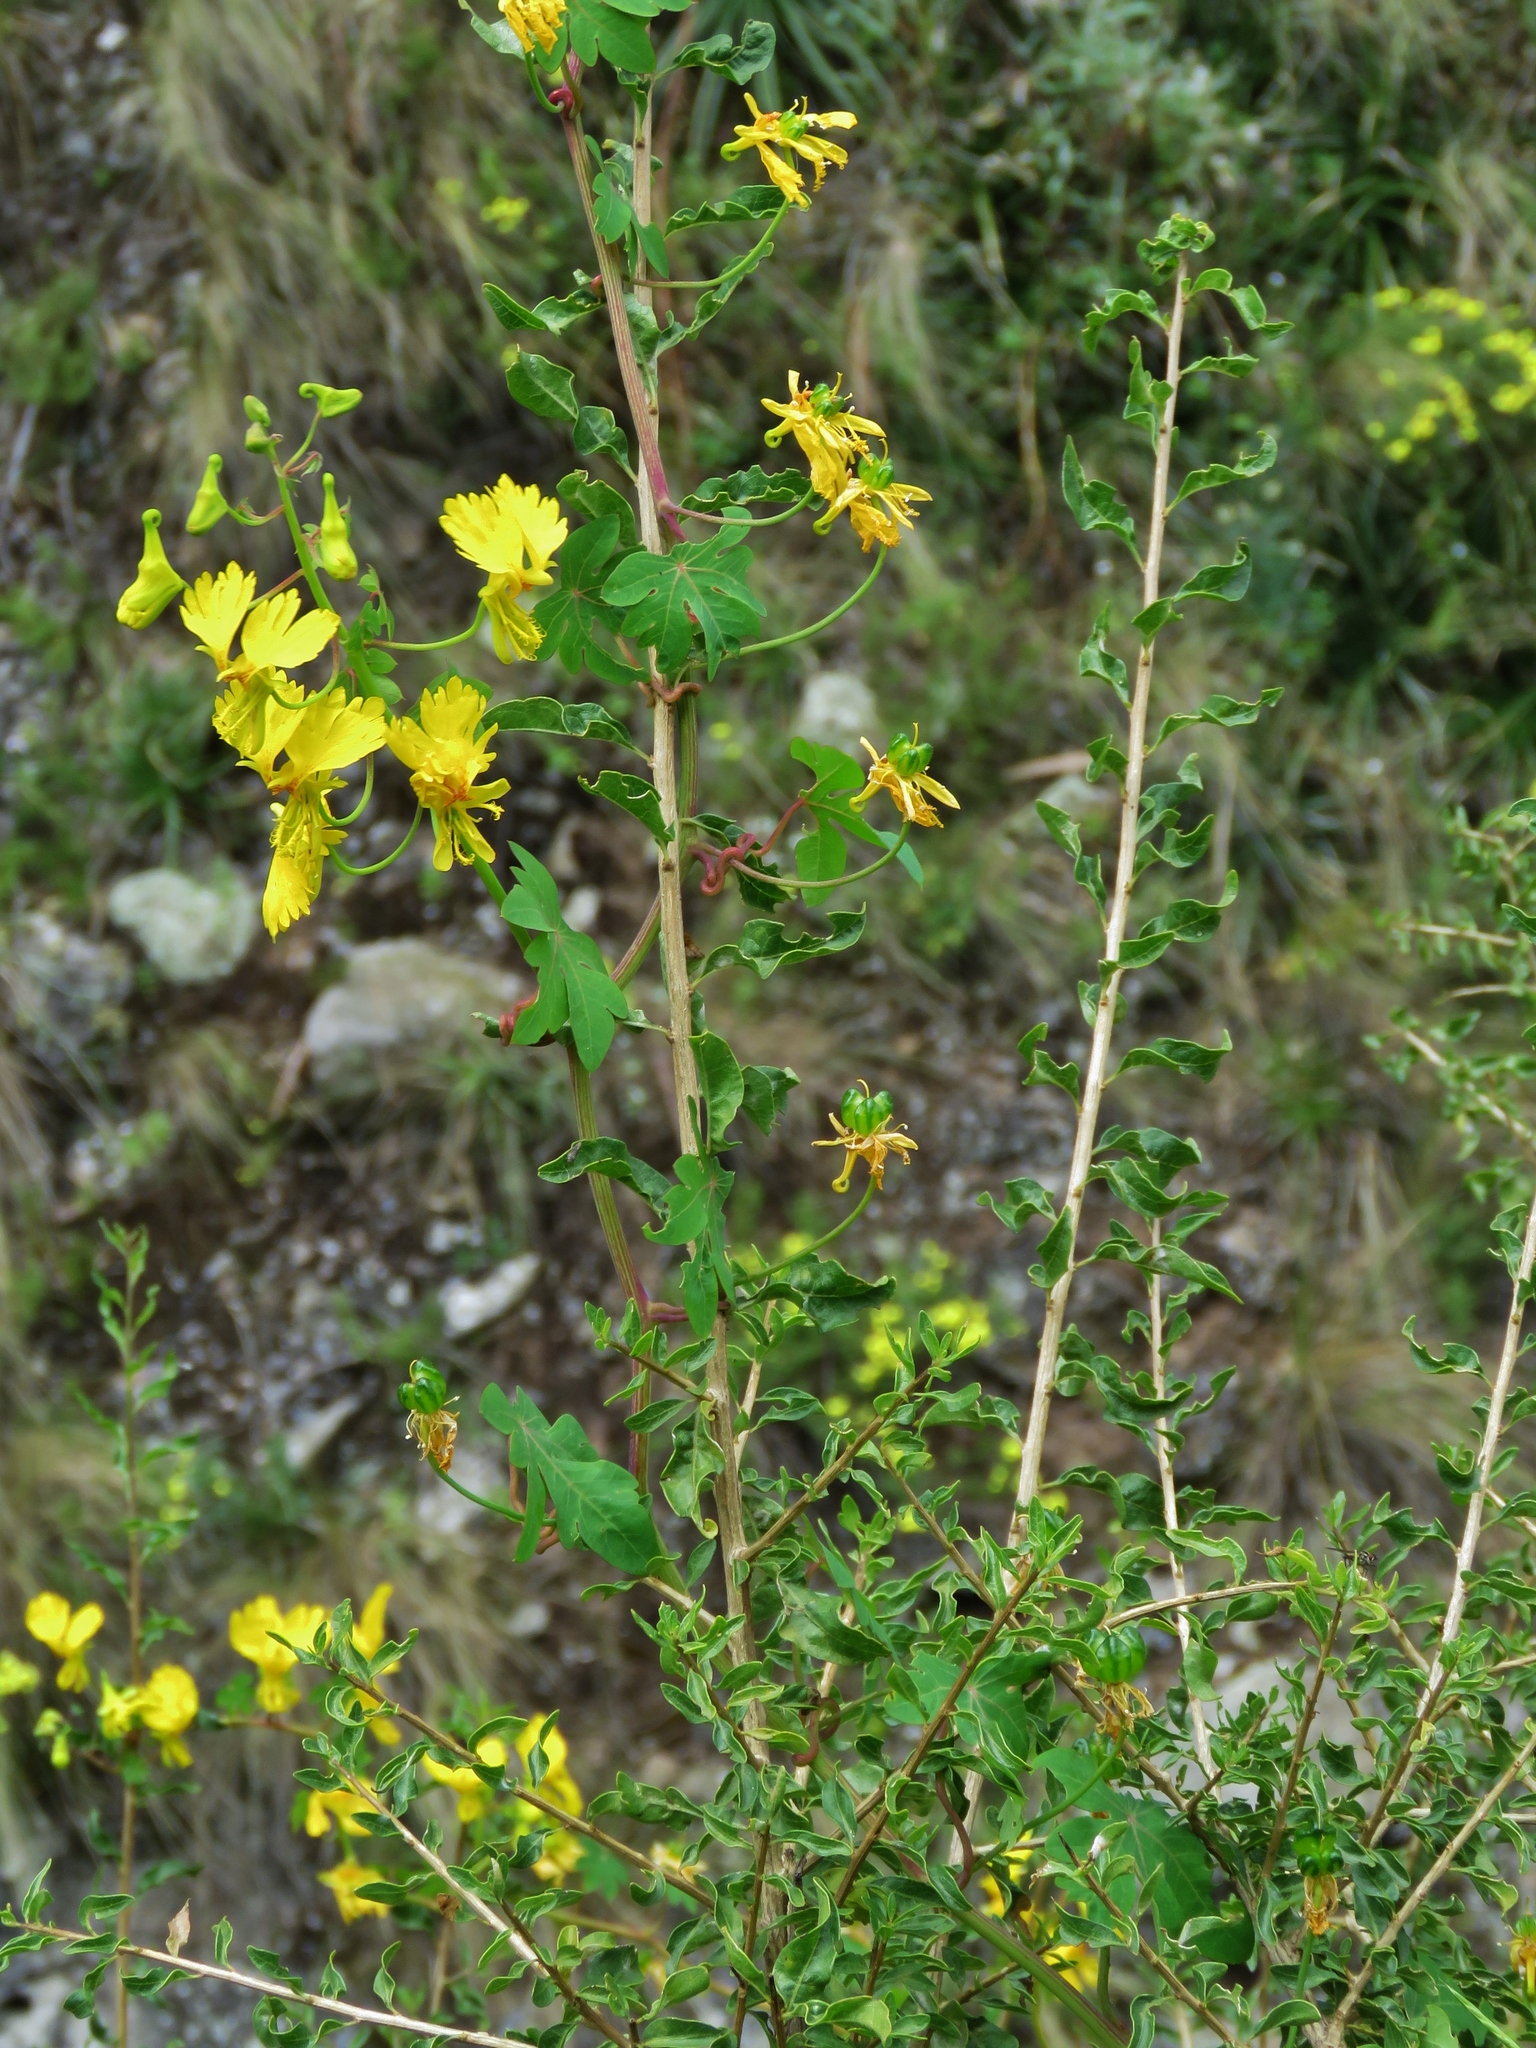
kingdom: Plantae
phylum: Tracheophyta
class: Magnoliopsida
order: Brassicales
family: Tropaeolaceae
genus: Tropaeolum
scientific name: Tropaeolum peregrinum
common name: Canary-creeper
